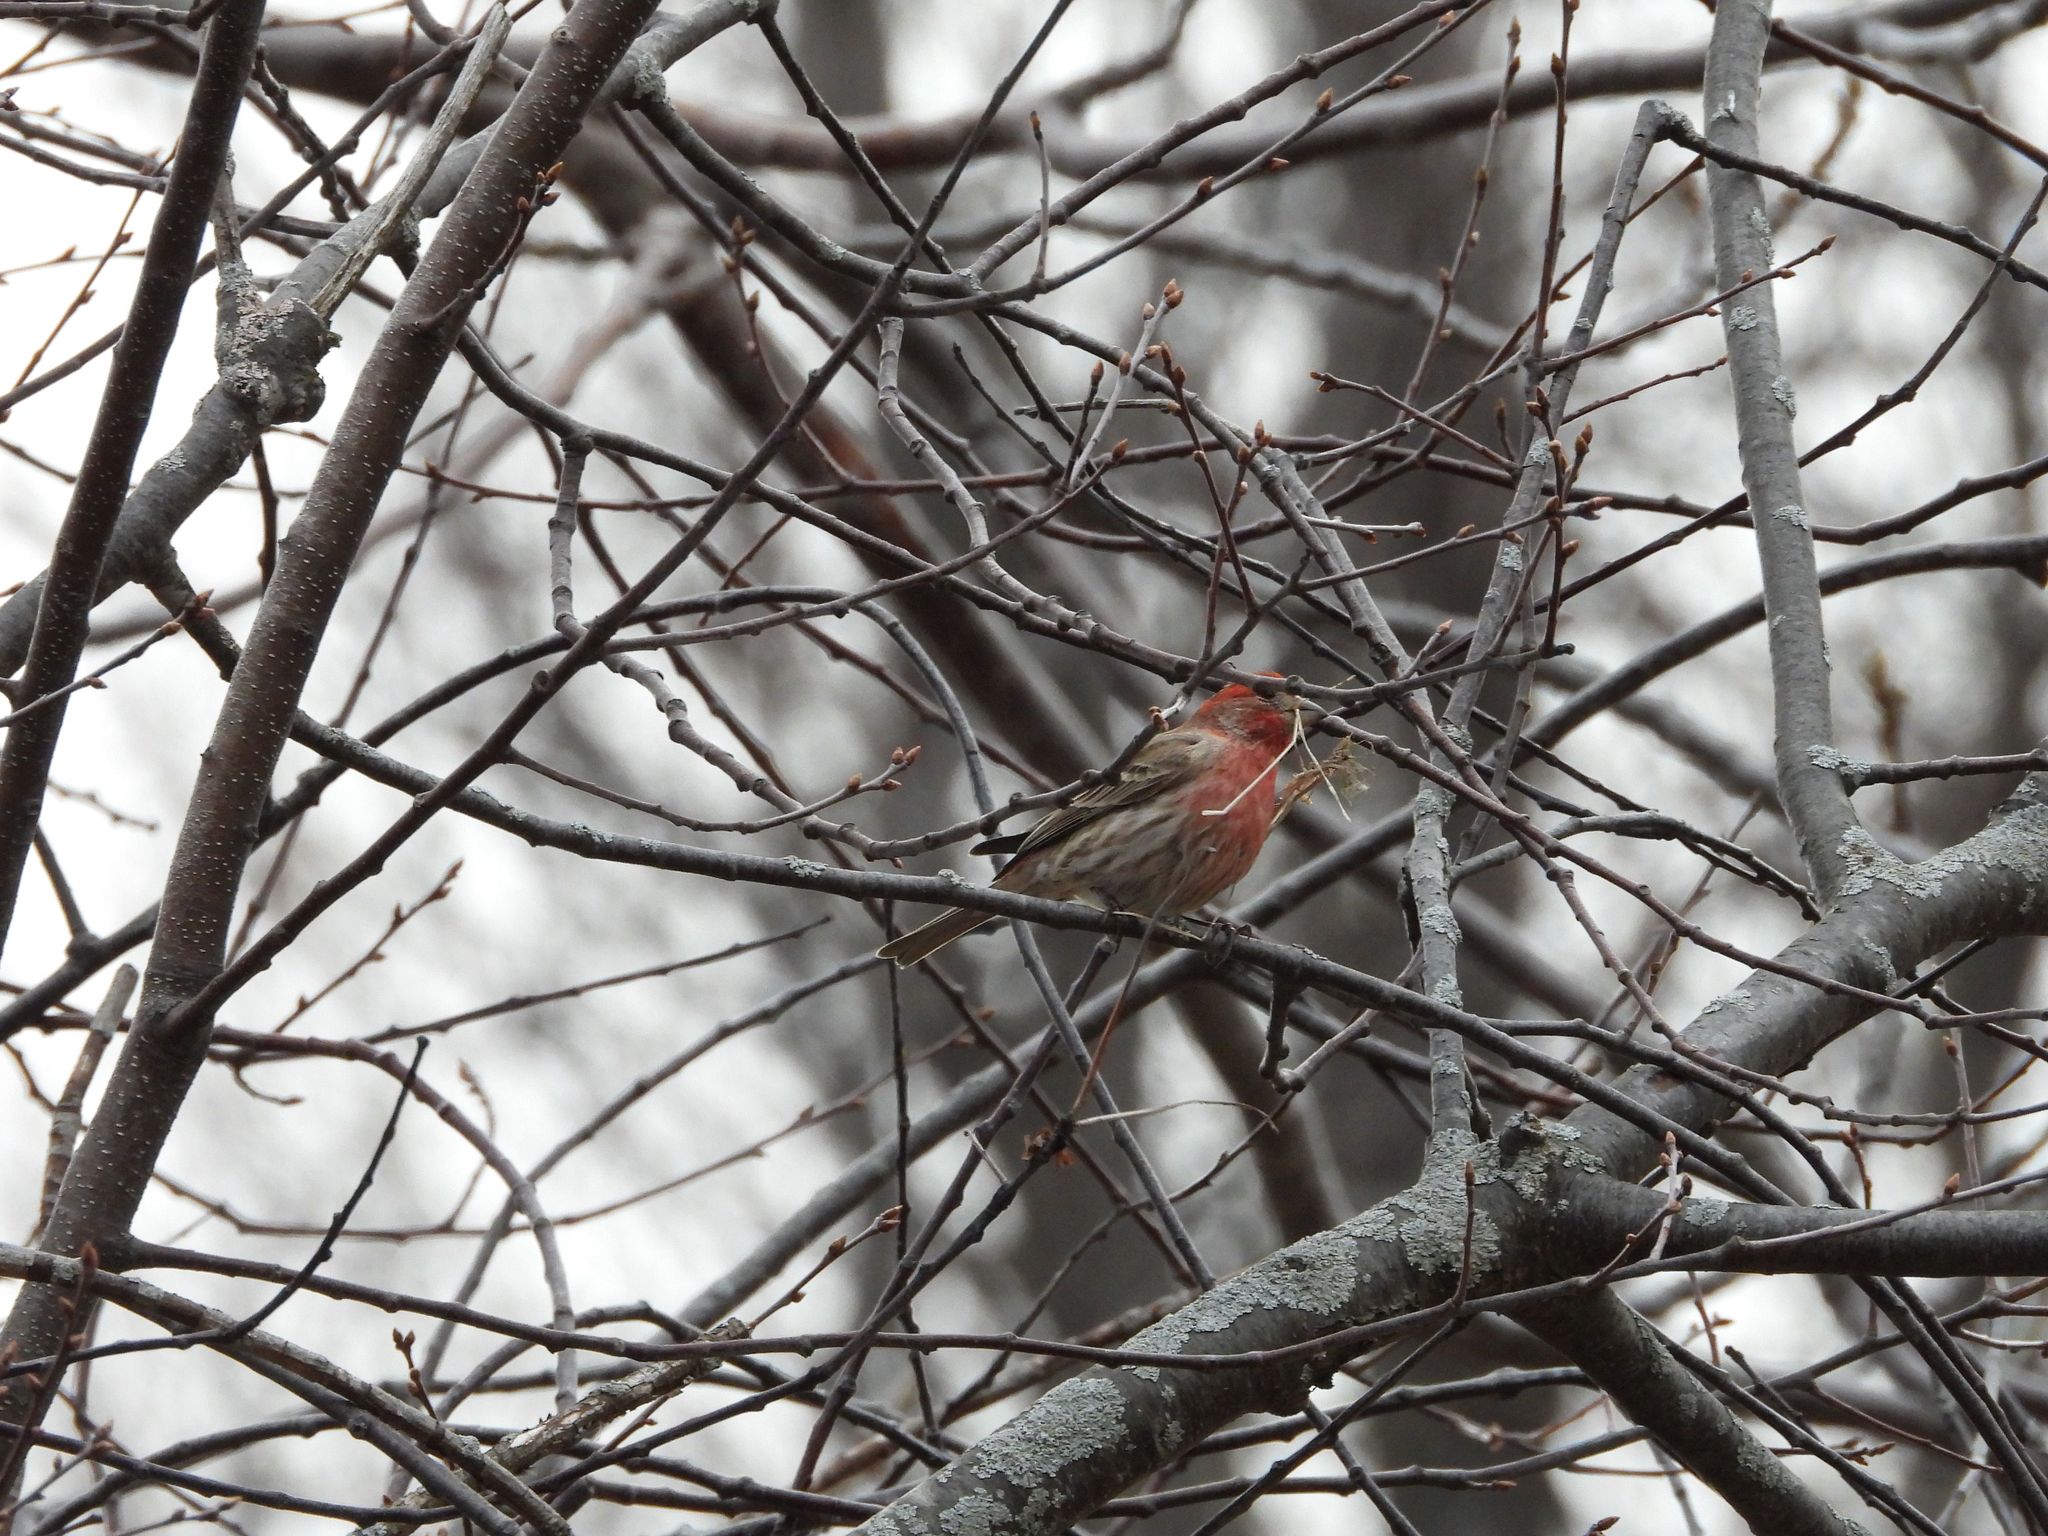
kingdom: Animalia
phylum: Chordata
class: Aves
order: Passeriformes
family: Fringillidae
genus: Haemorhous
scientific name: Haemorhous mexicanus
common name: House finch
